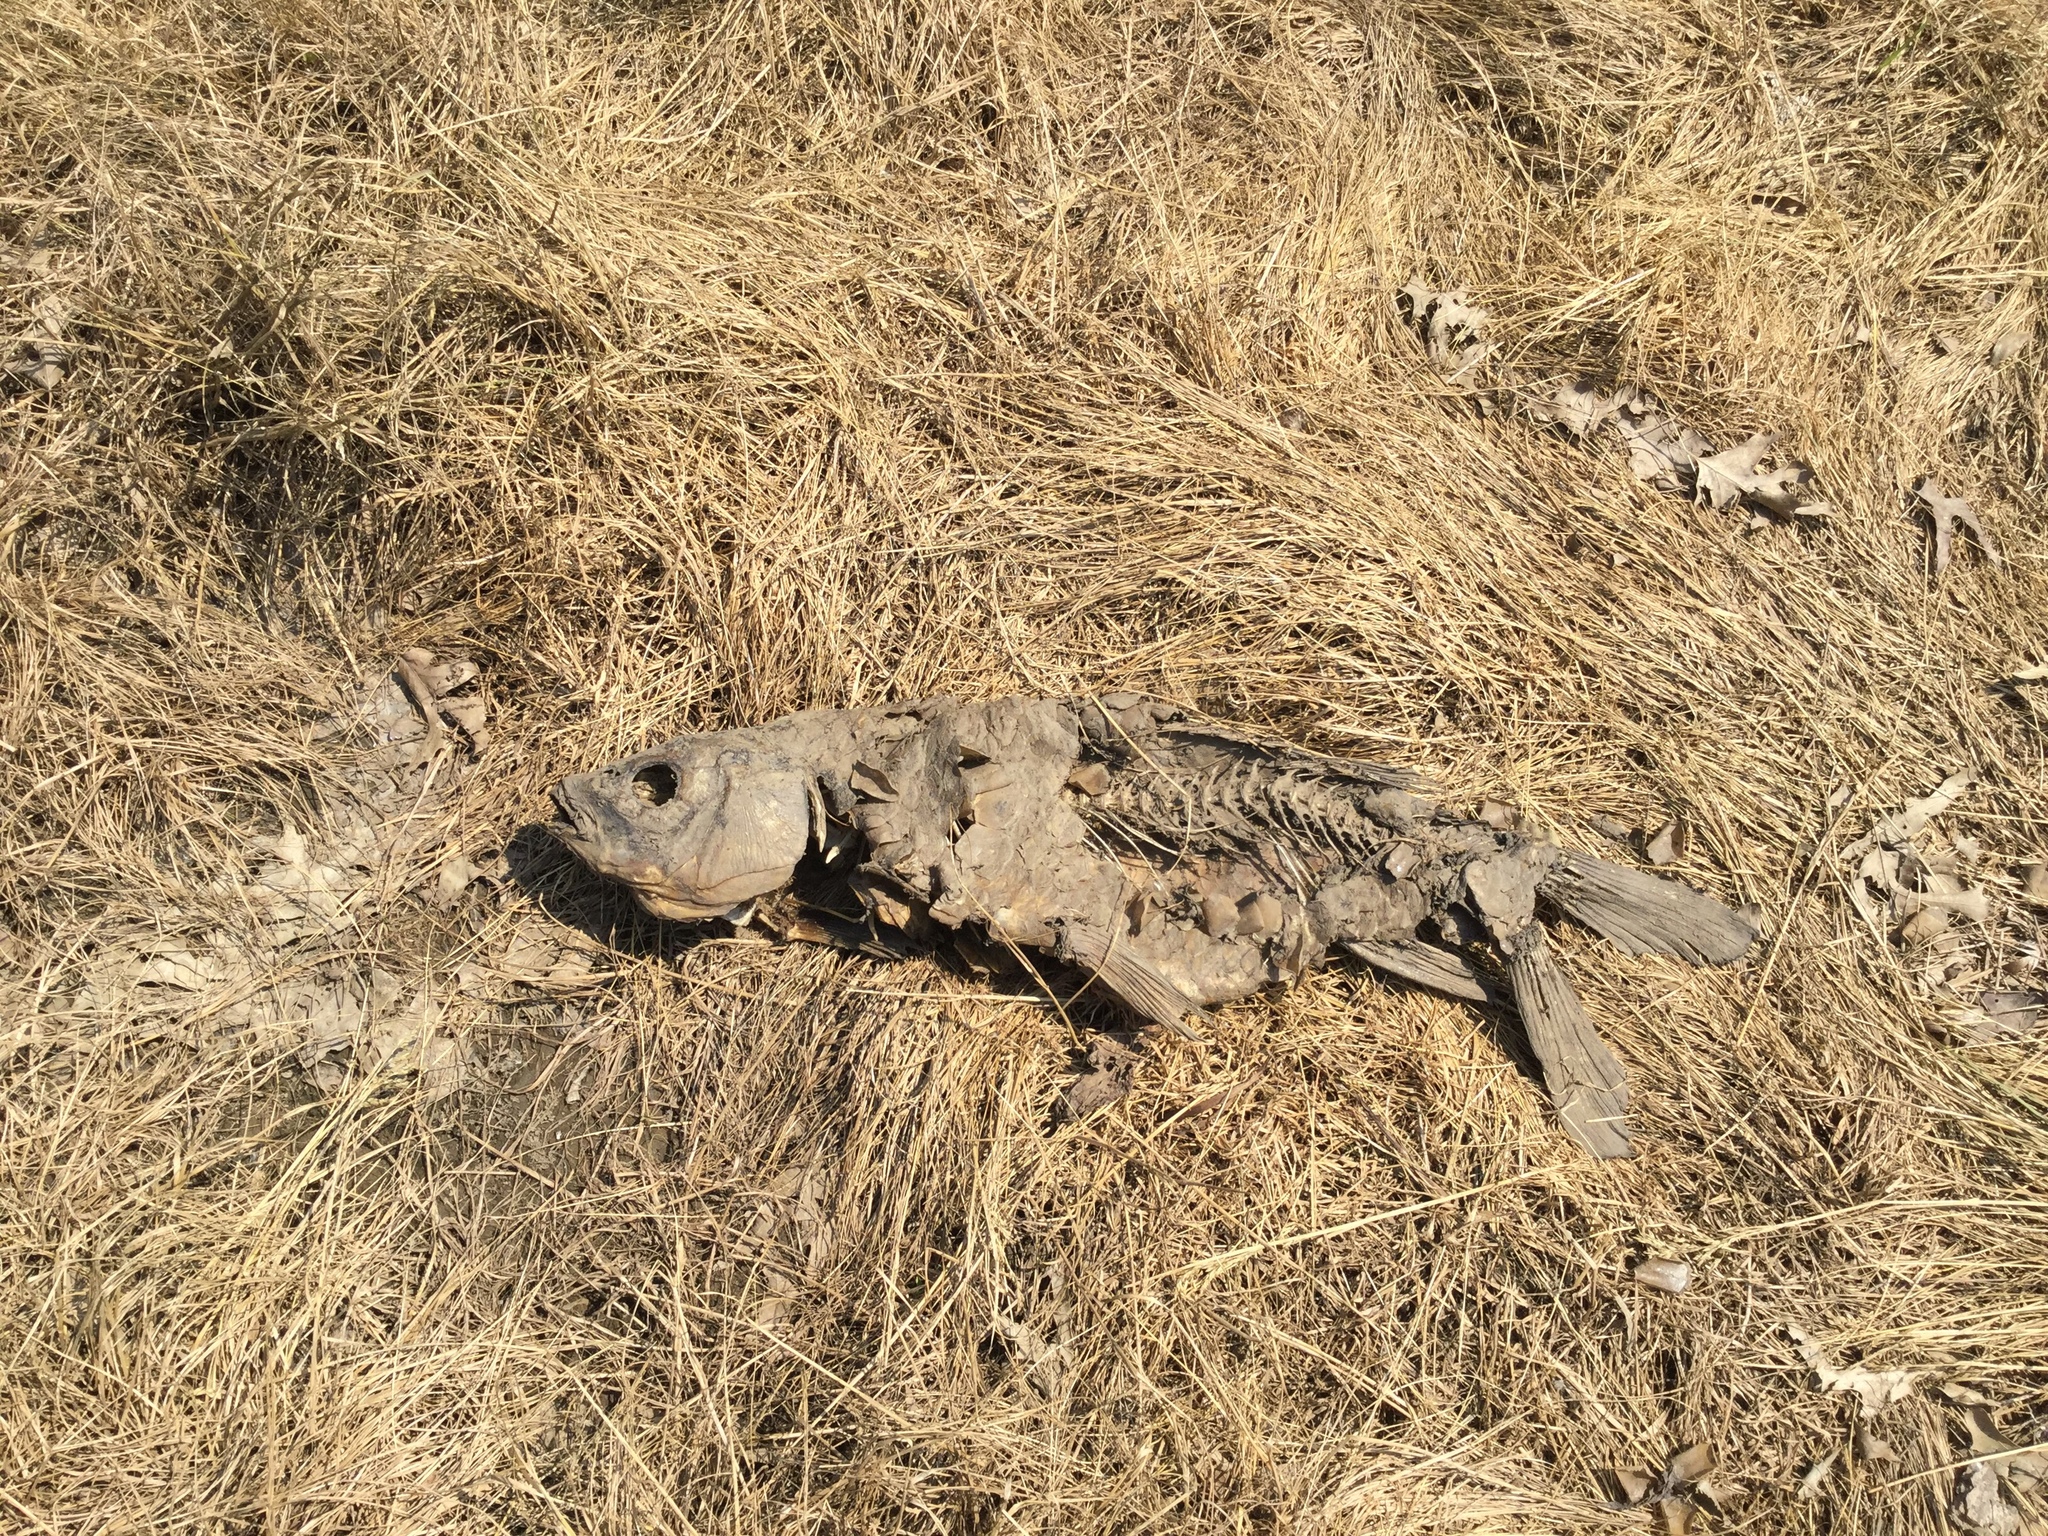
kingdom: Animalia
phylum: Chordata
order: Cypriniformes
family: Cyprinidae
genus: Cyprinus
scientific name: Cyprinus carpio
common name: Common carp
